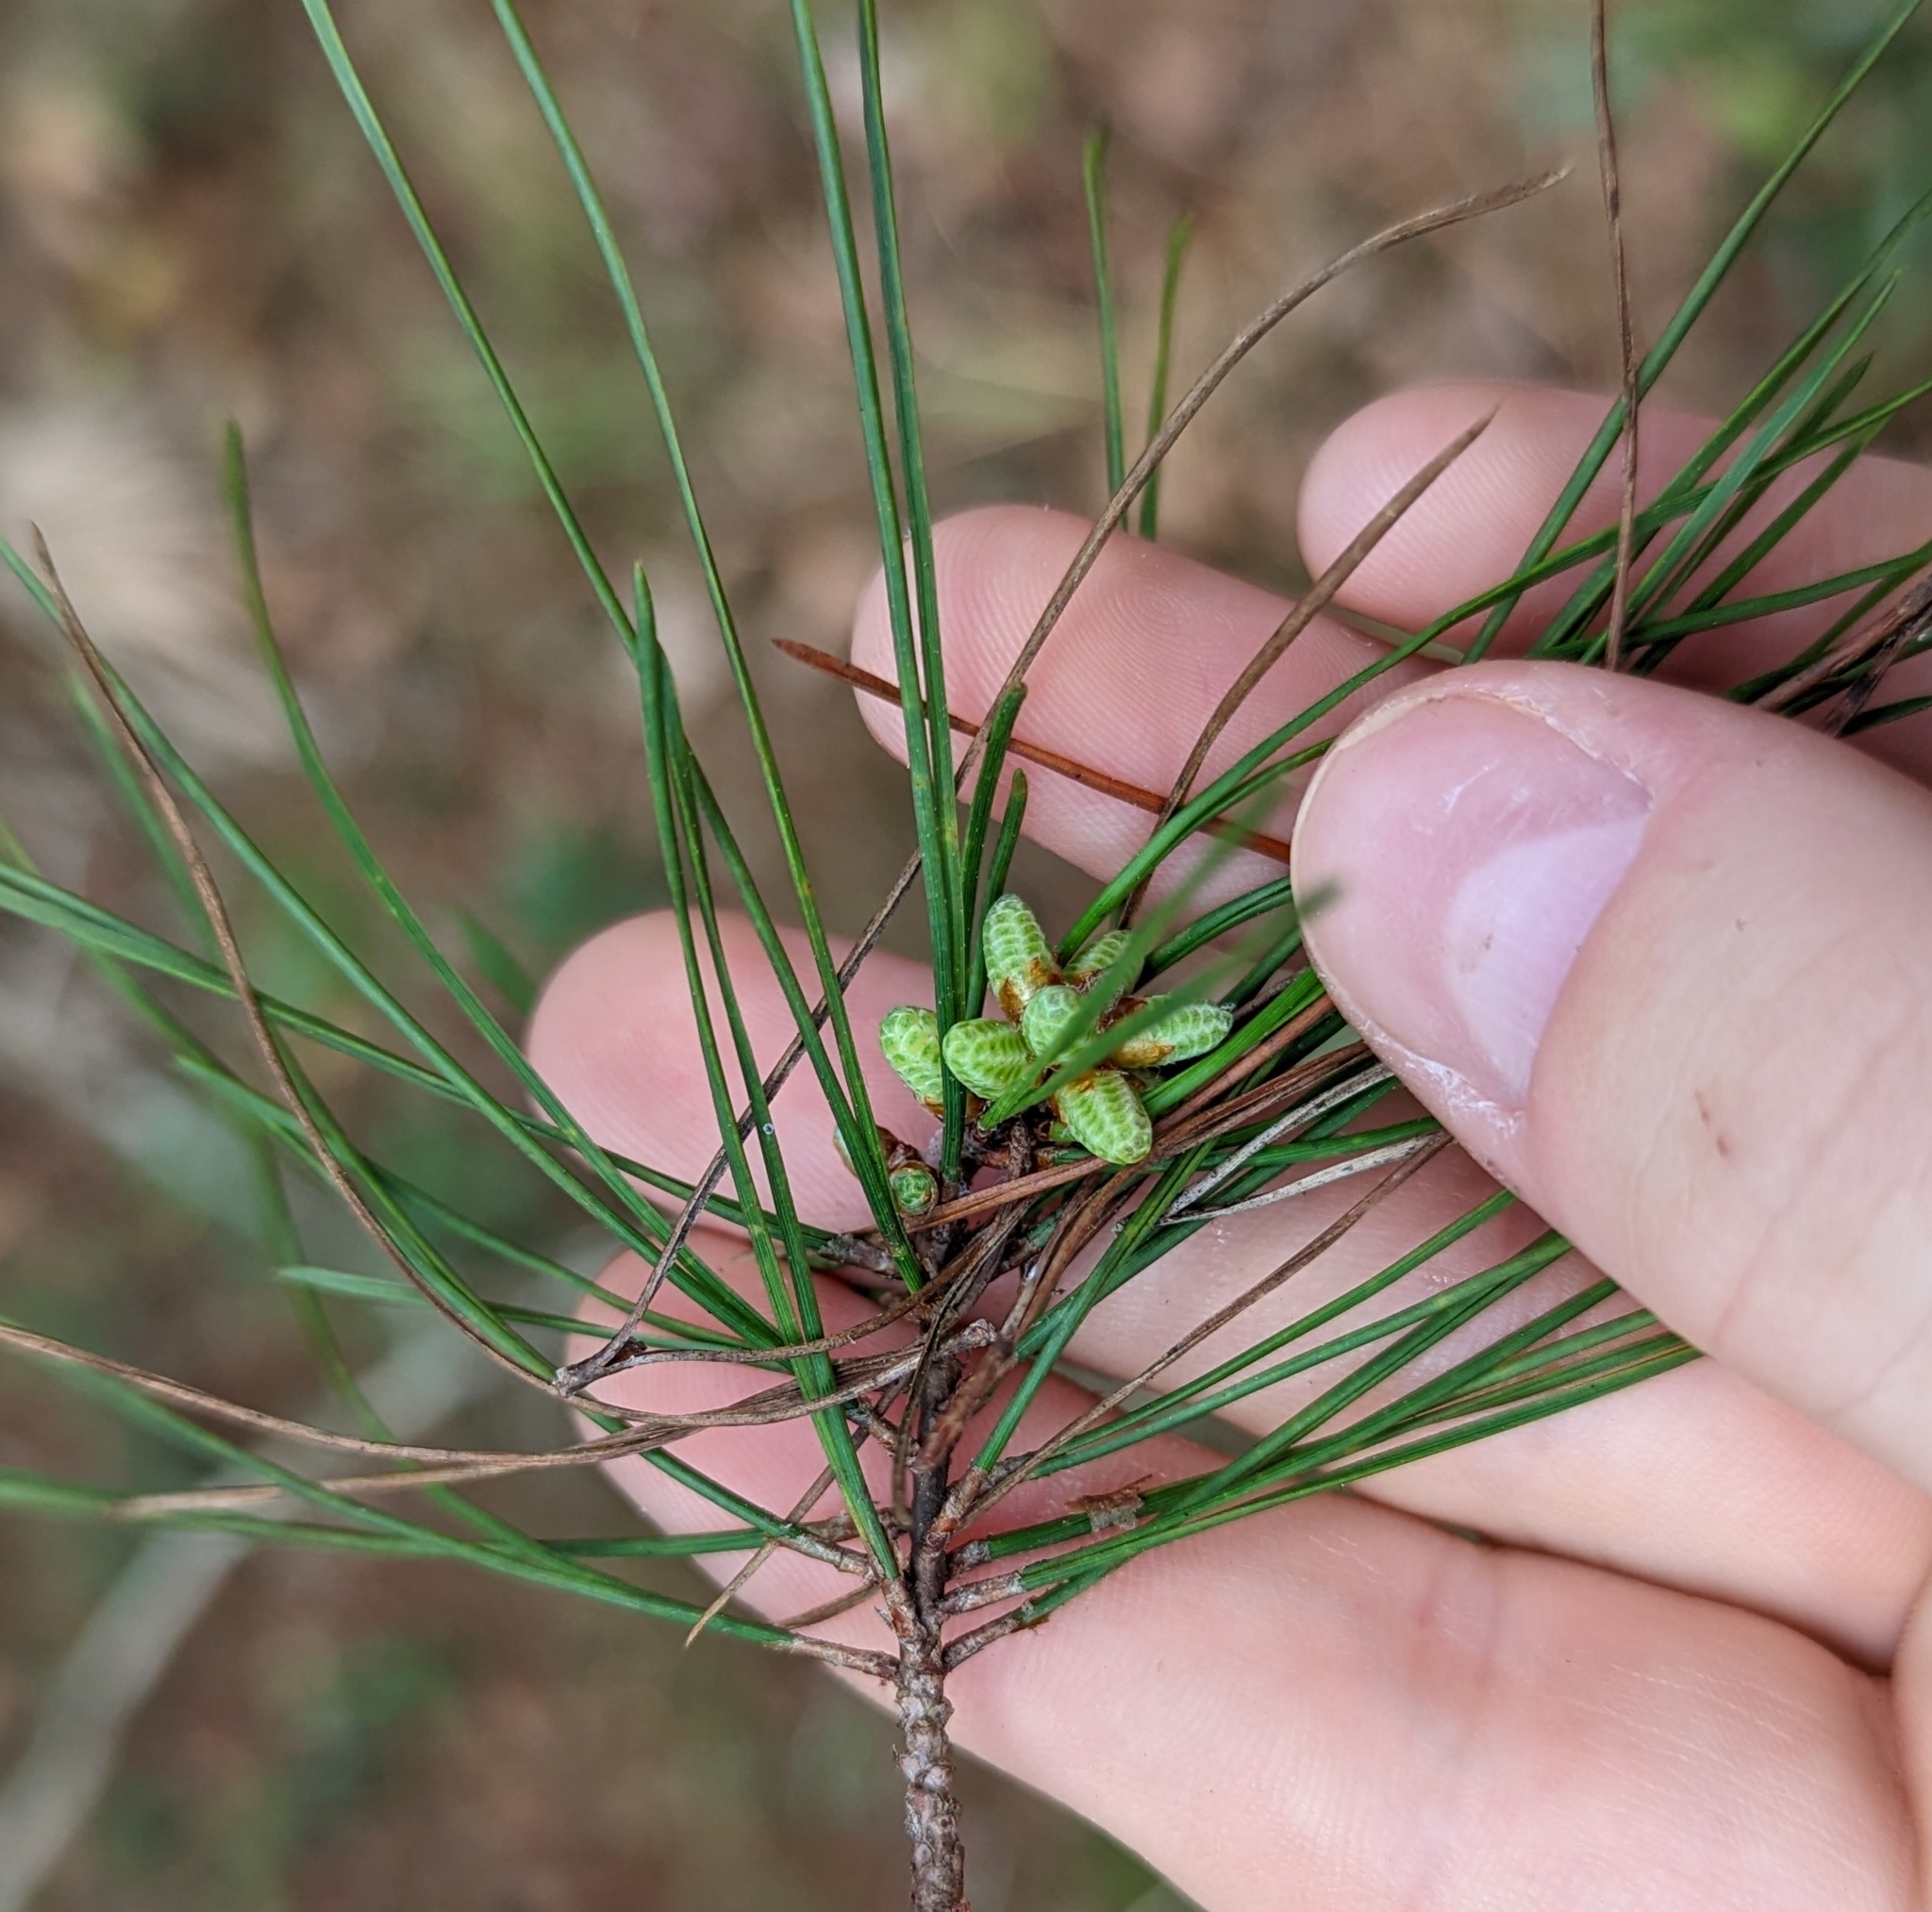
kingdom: Plantae
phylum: Tracheophyta
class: Pinopsida
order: Pinales
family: Pinaceae
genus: Pinus
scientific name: Pinus clausa
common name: Sand pine
